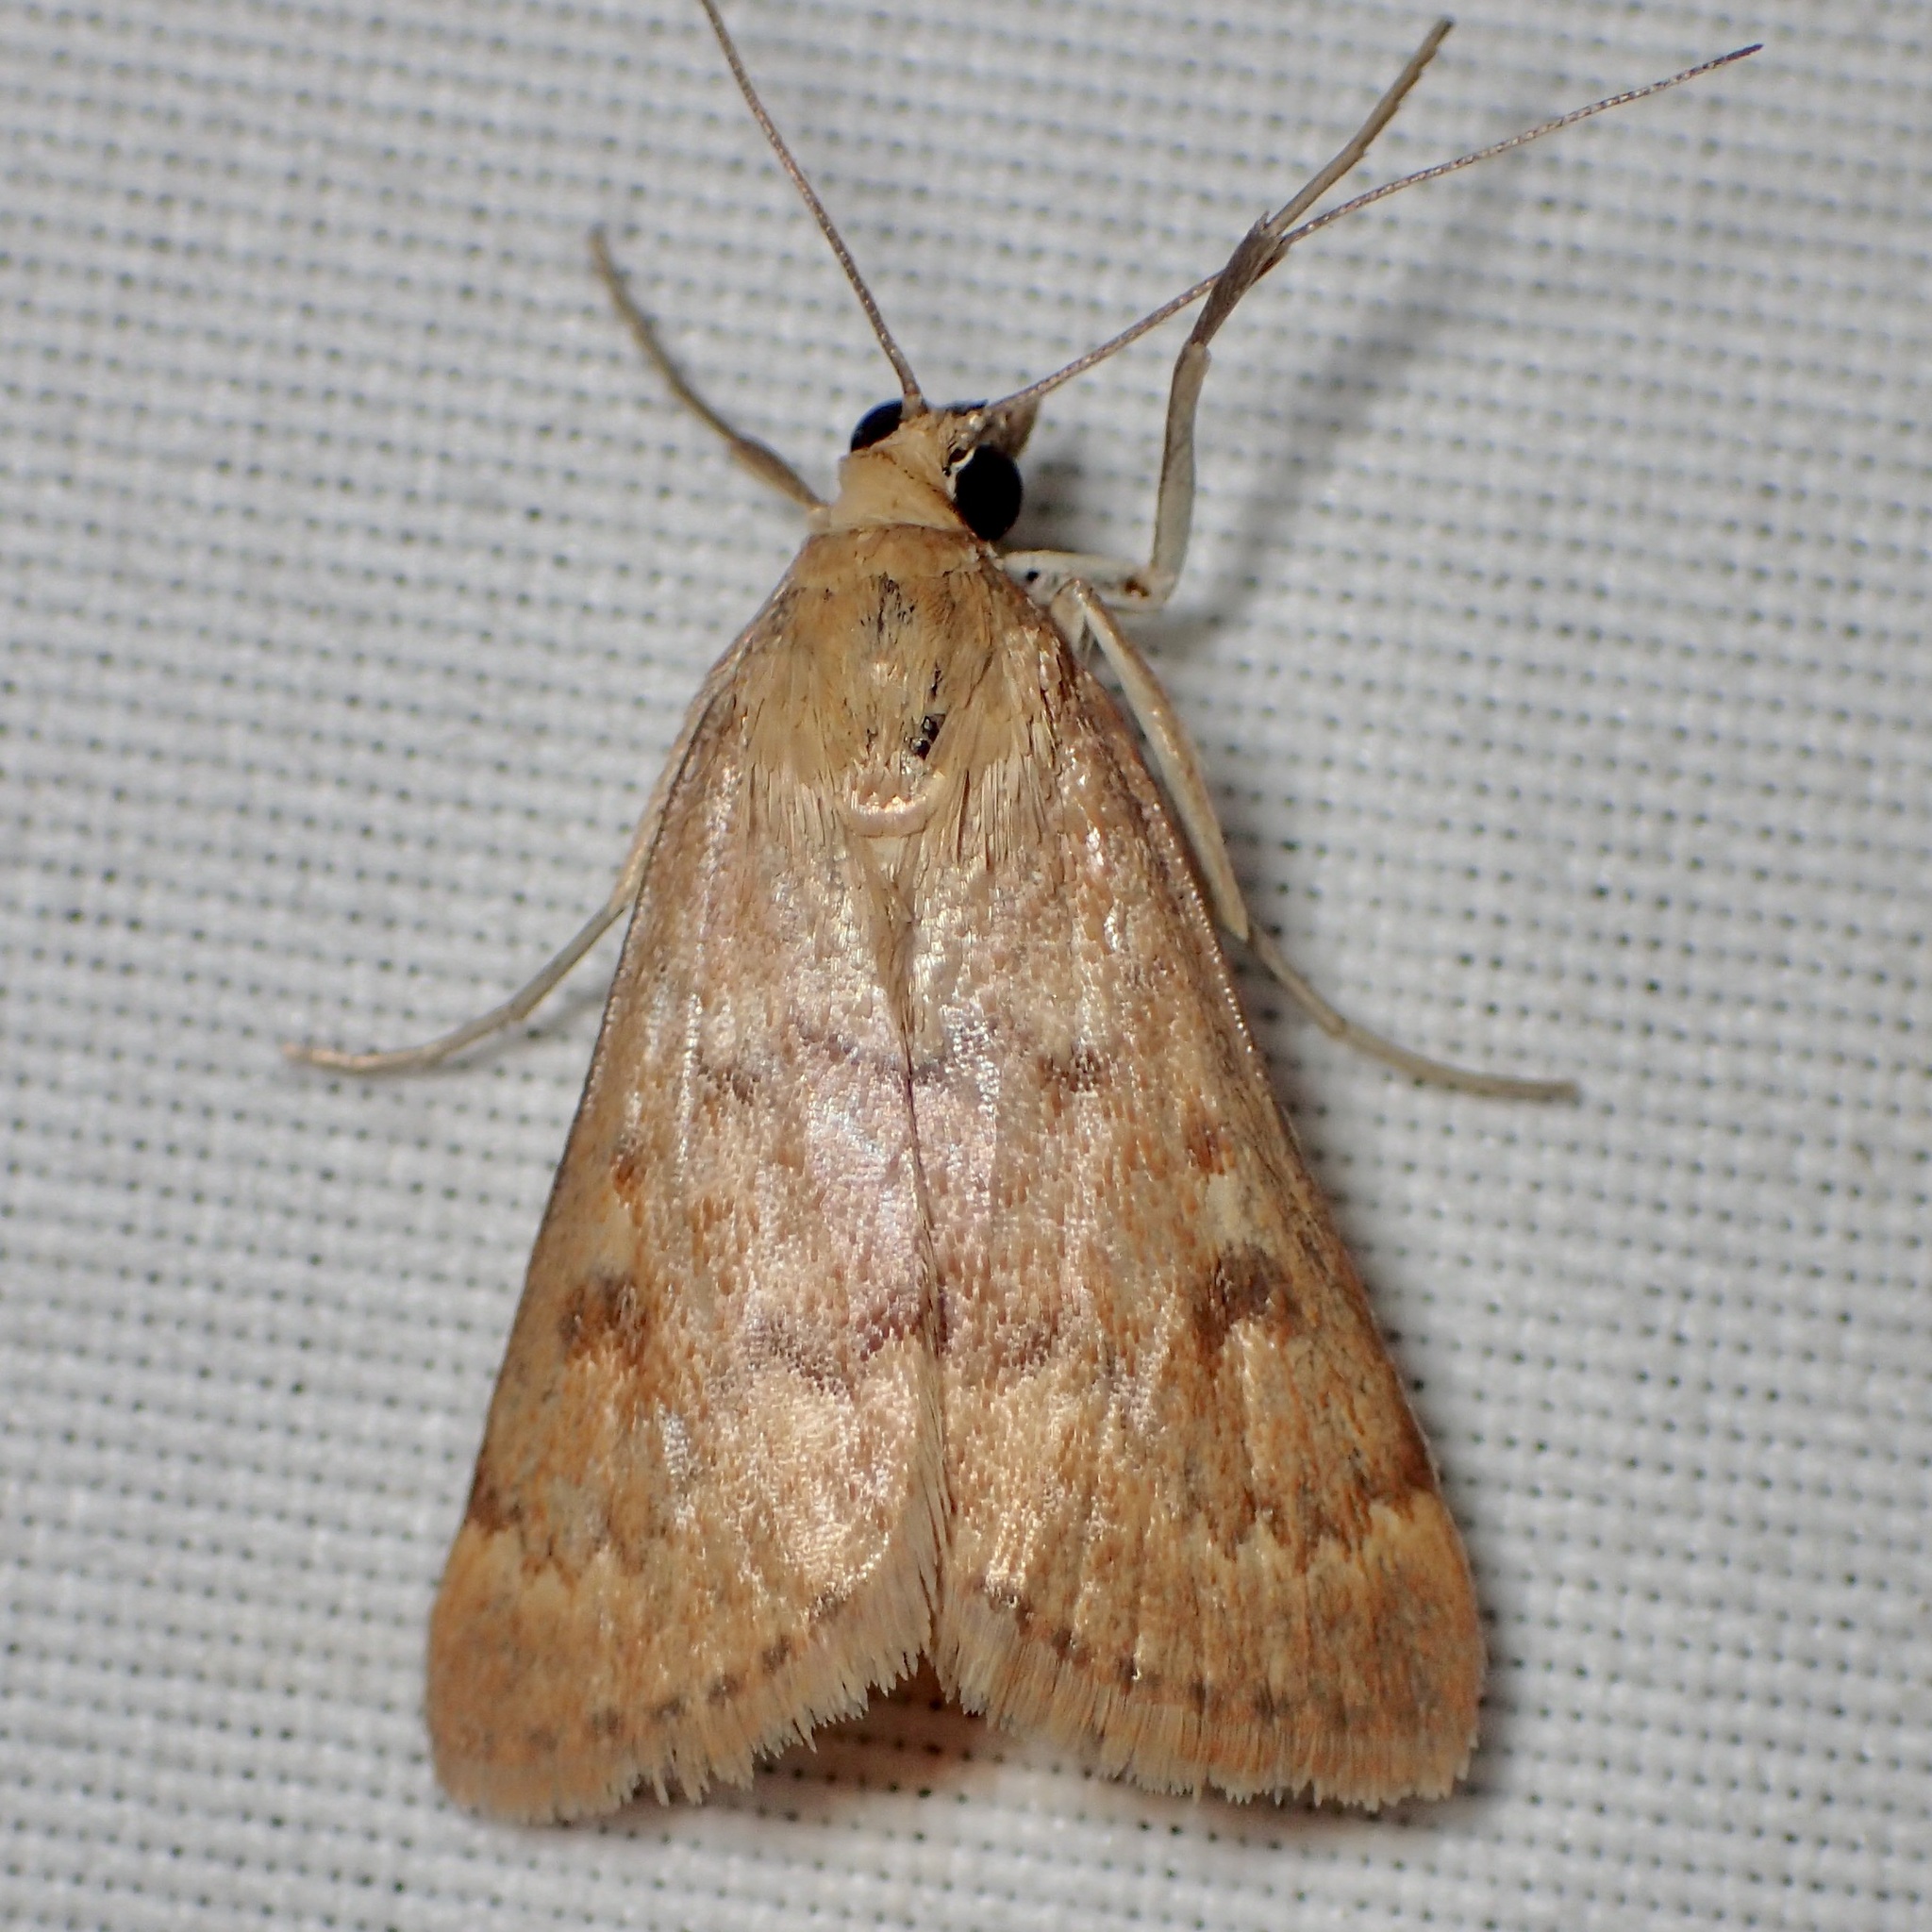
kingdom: Animalia
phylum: Arthropoda
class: Insecta
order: Lepidoptera
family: Crambidae
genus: Achyra
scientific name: Achyra rantalis
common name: Garden webworm
